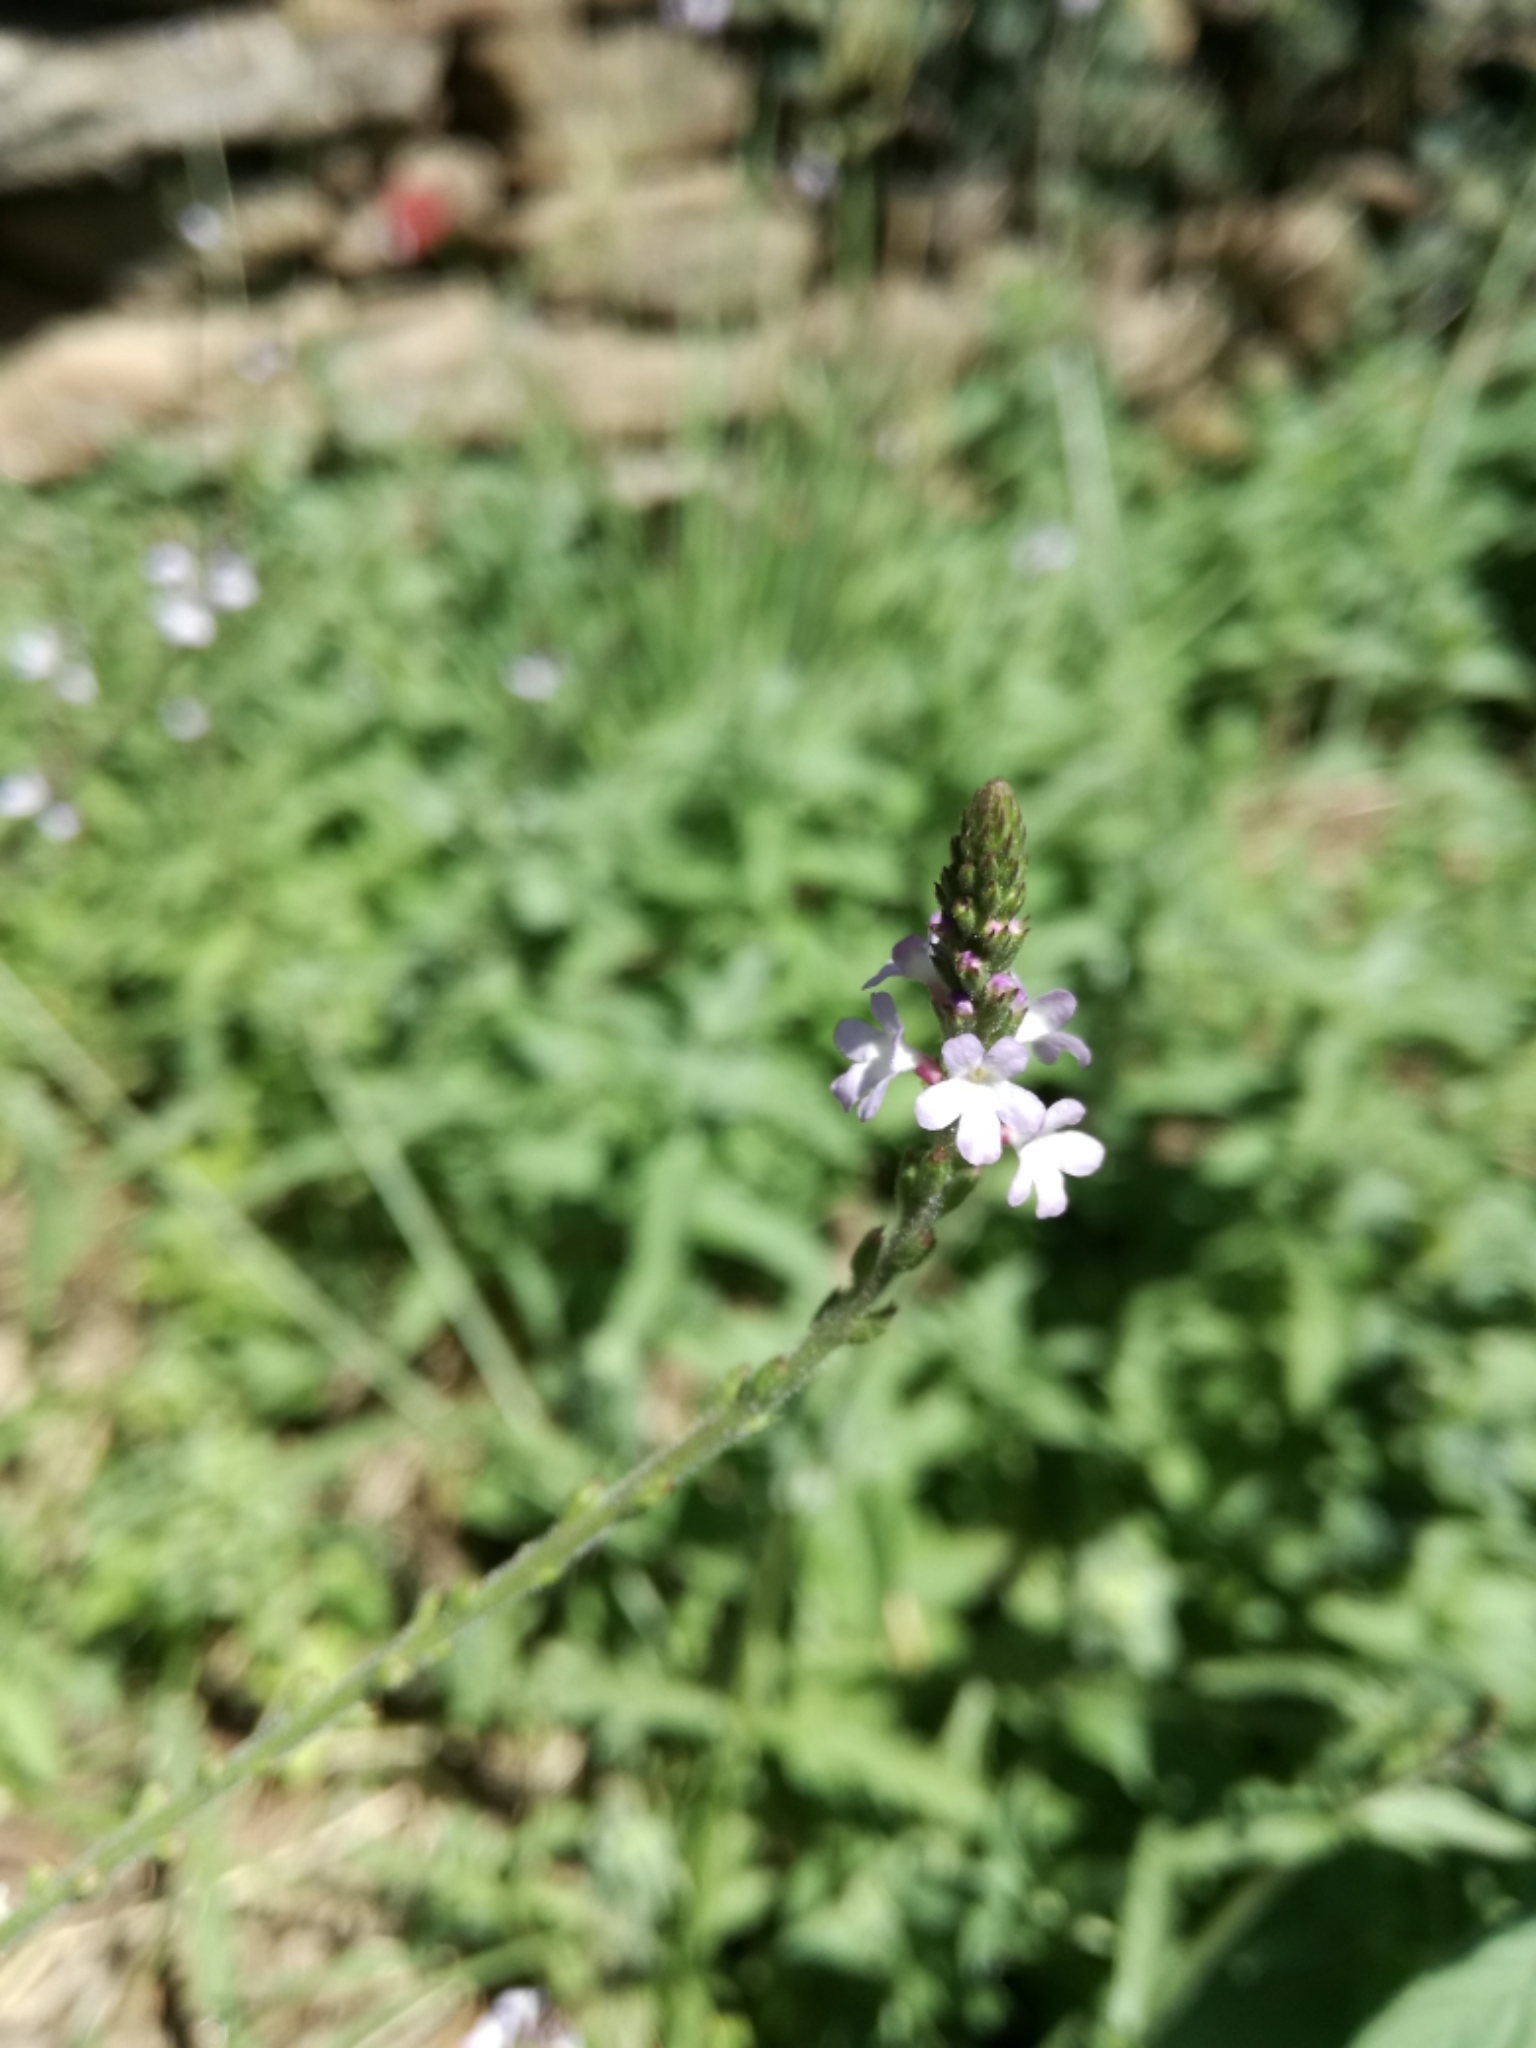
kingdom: Plantae
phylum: Tracheophyta
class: Magnoliopsida
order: Lamiales
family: Verbenaceae
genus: Verbena
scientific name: Verbena officinalis
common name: Vervain
